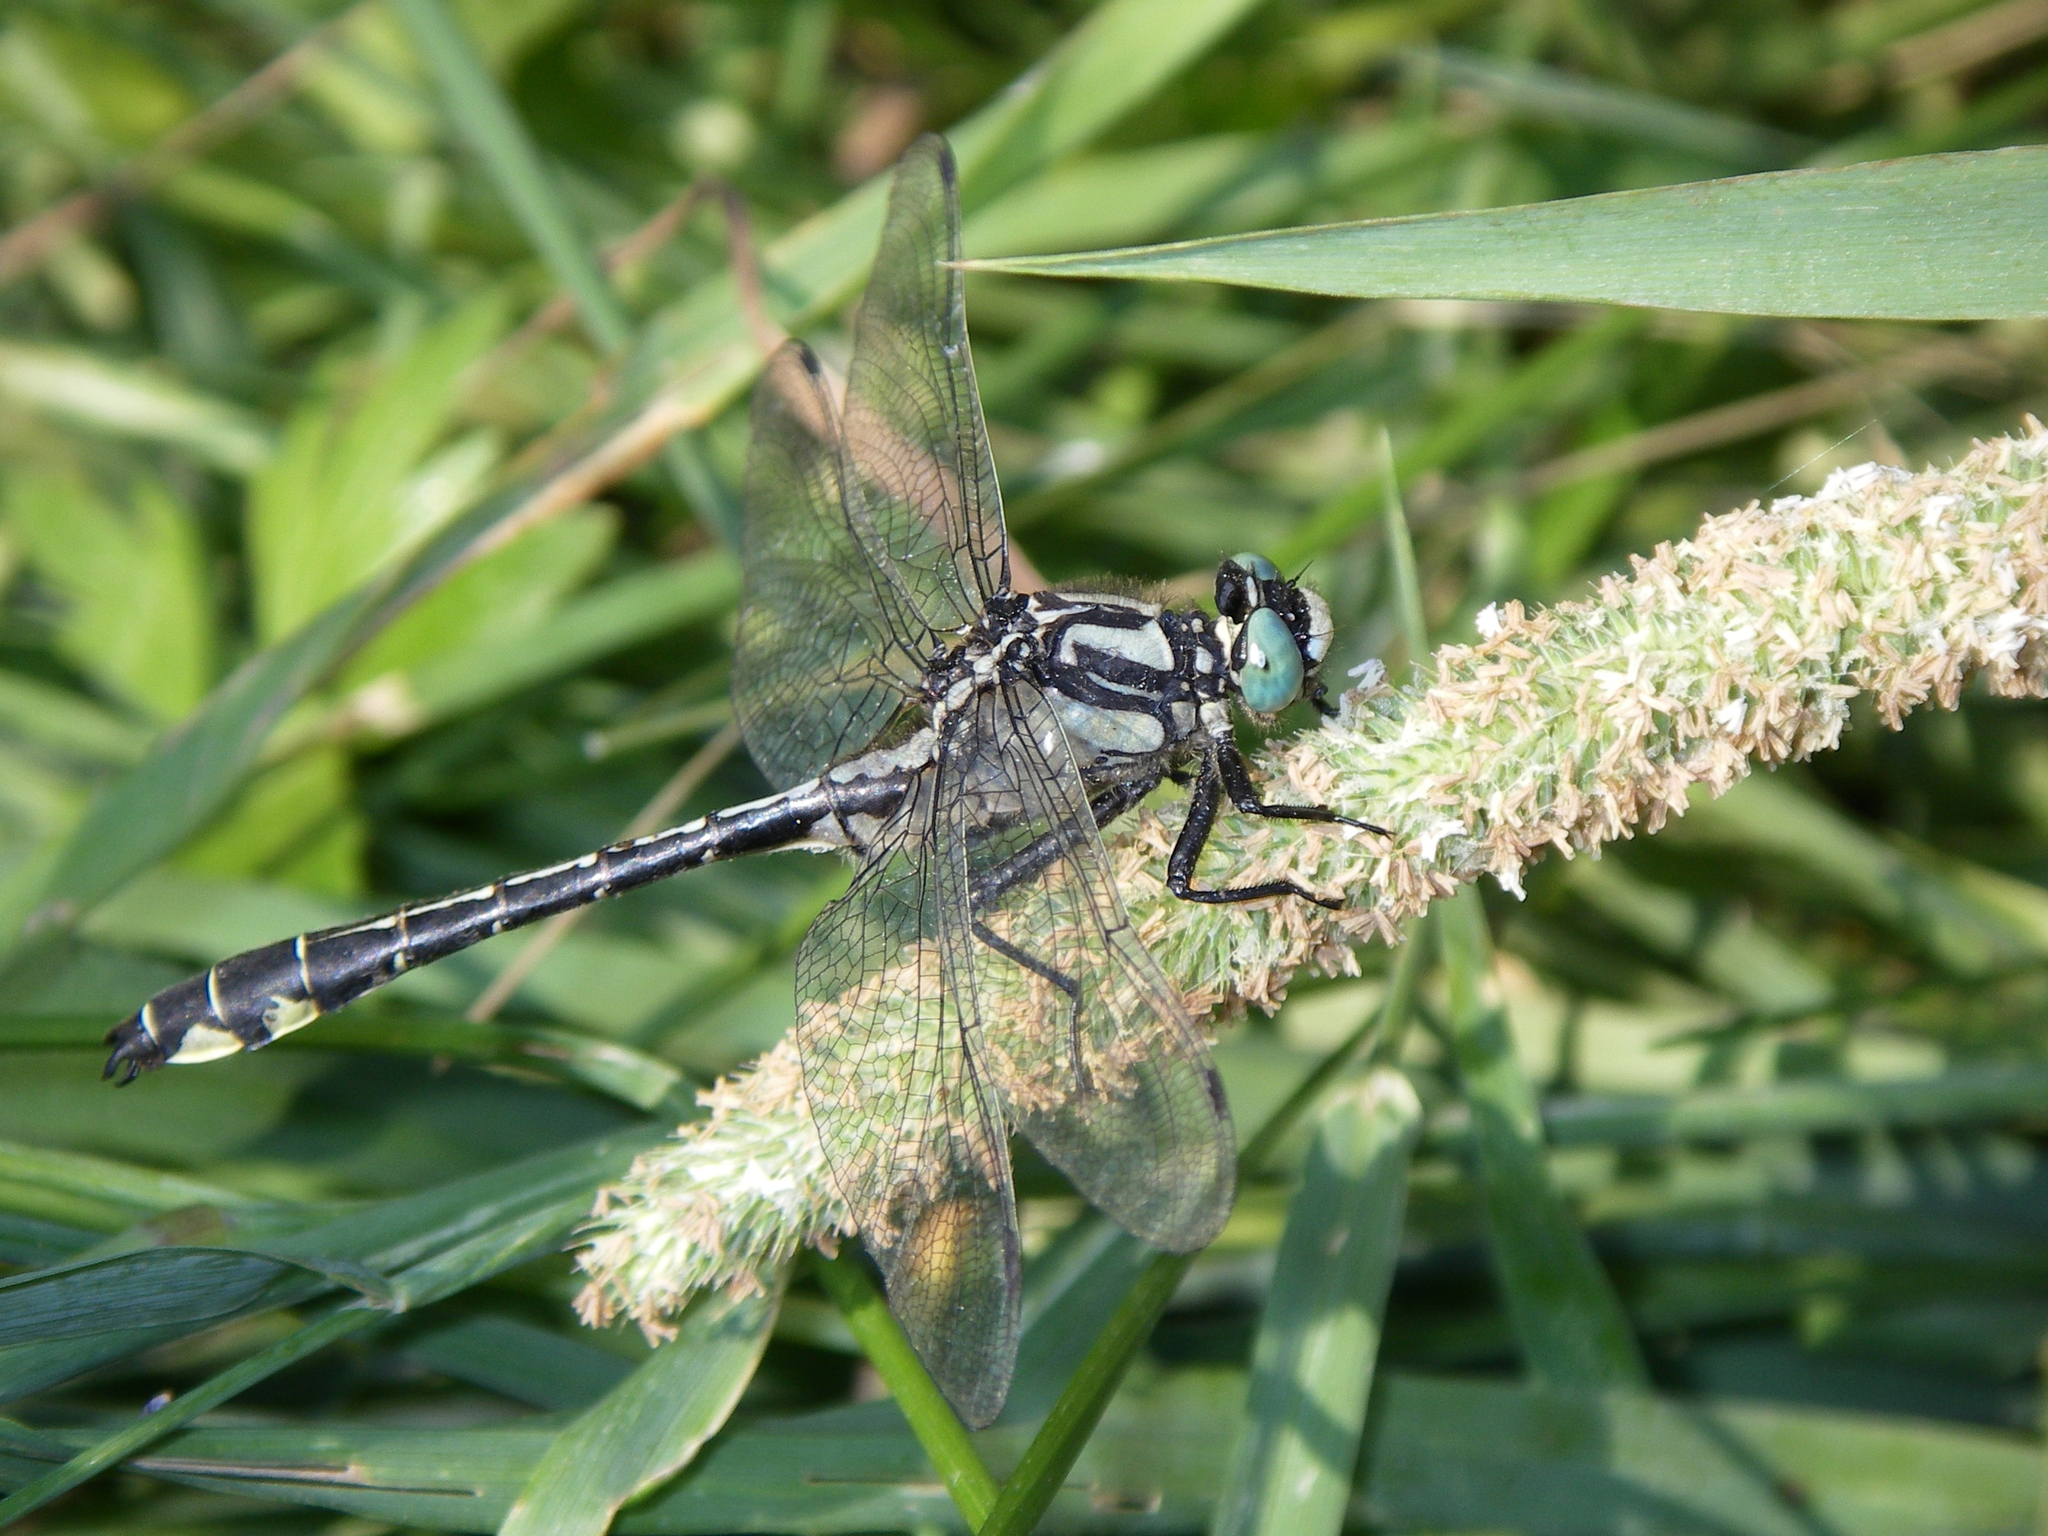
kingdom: Animalia
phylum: Arthropoda
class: Insecta
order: Odonata
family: Gomphidae
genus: Gomphus
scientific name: Gomphus vulgatissimus
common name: Club-tailed dragonfly
